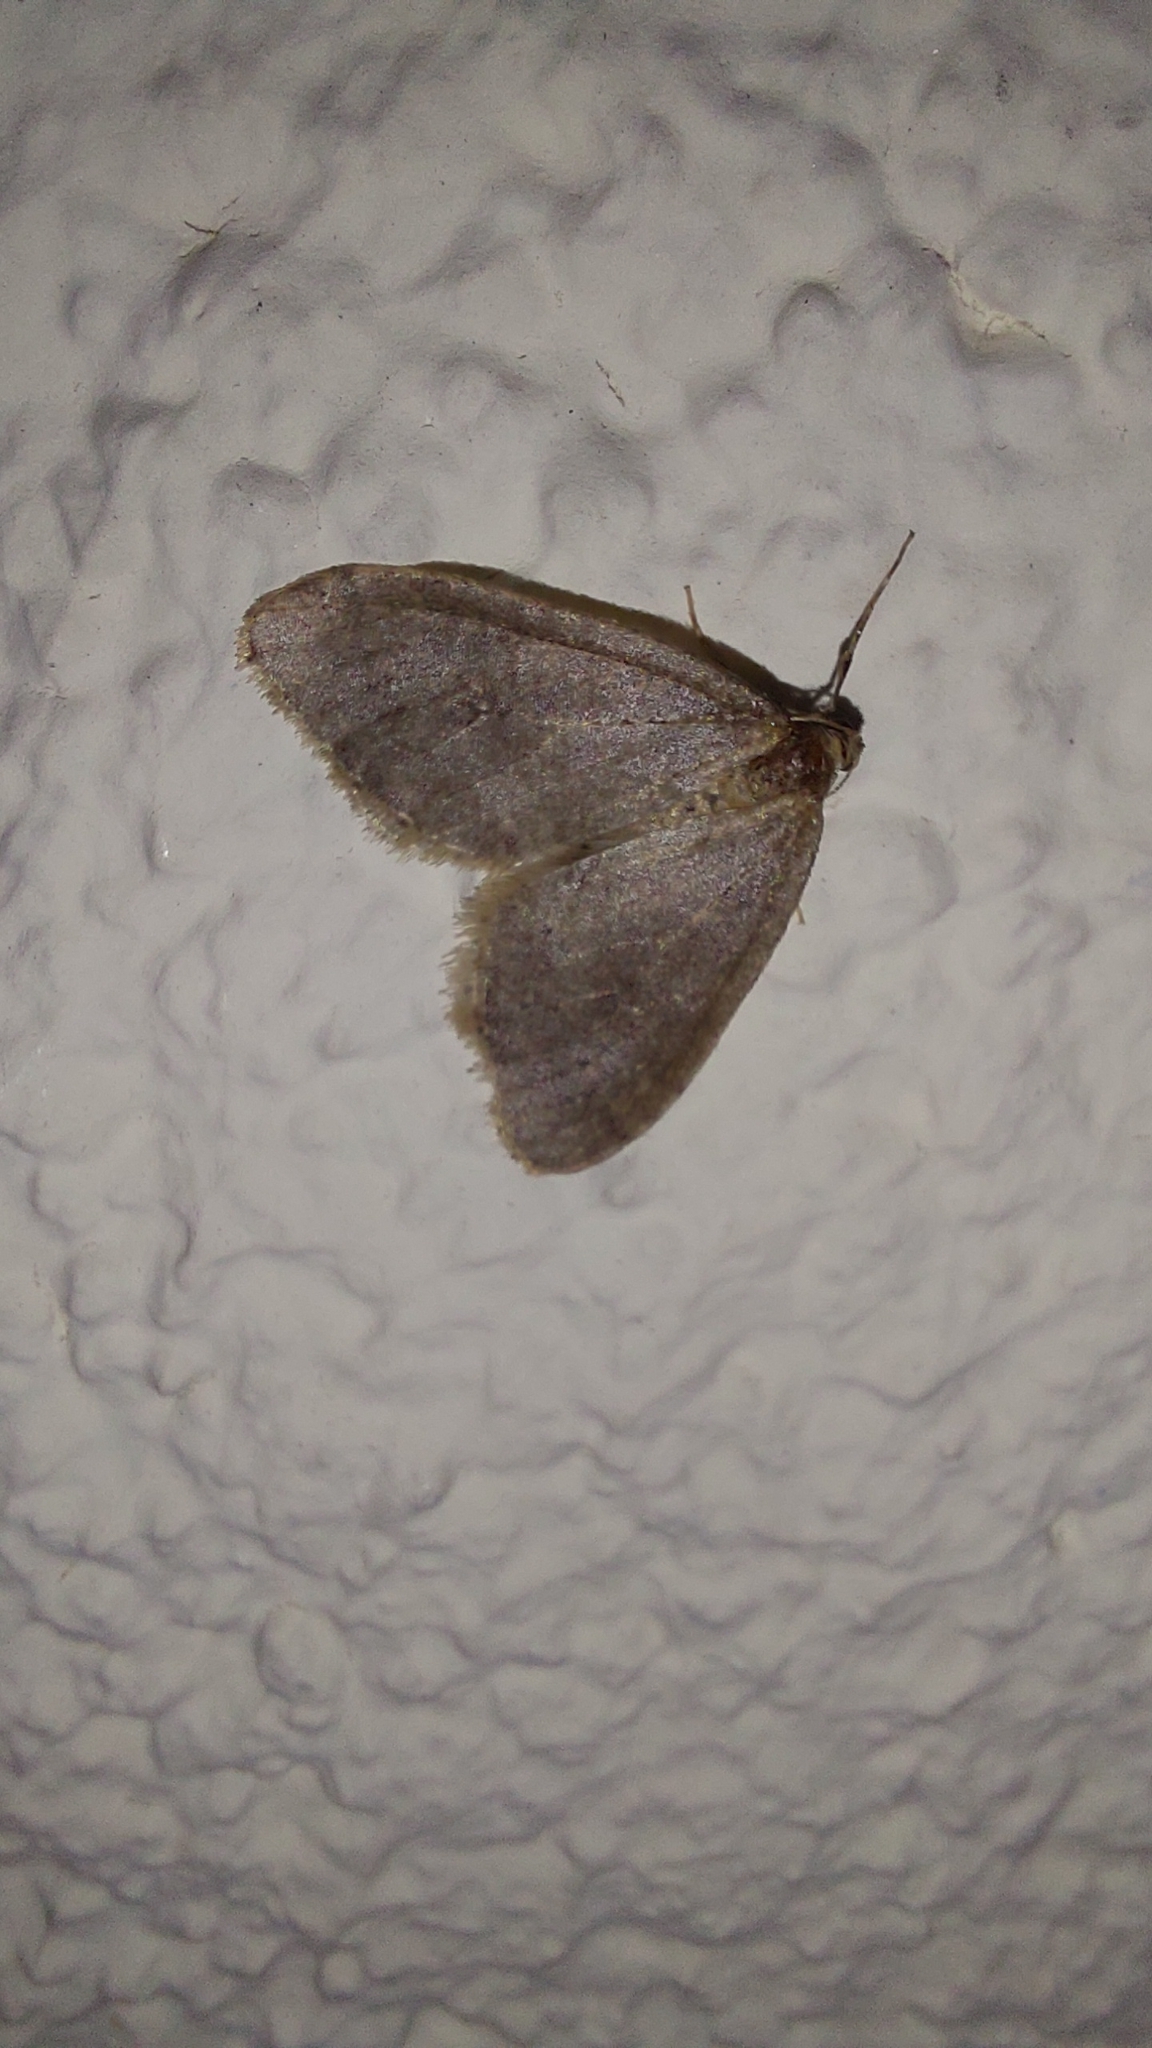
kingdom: Animalia
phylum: Arthropoda
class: Insecta
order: Lepidoptera
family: Geometridae
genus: Operophtera
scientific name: Operophtera brumata
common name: Winter moth
